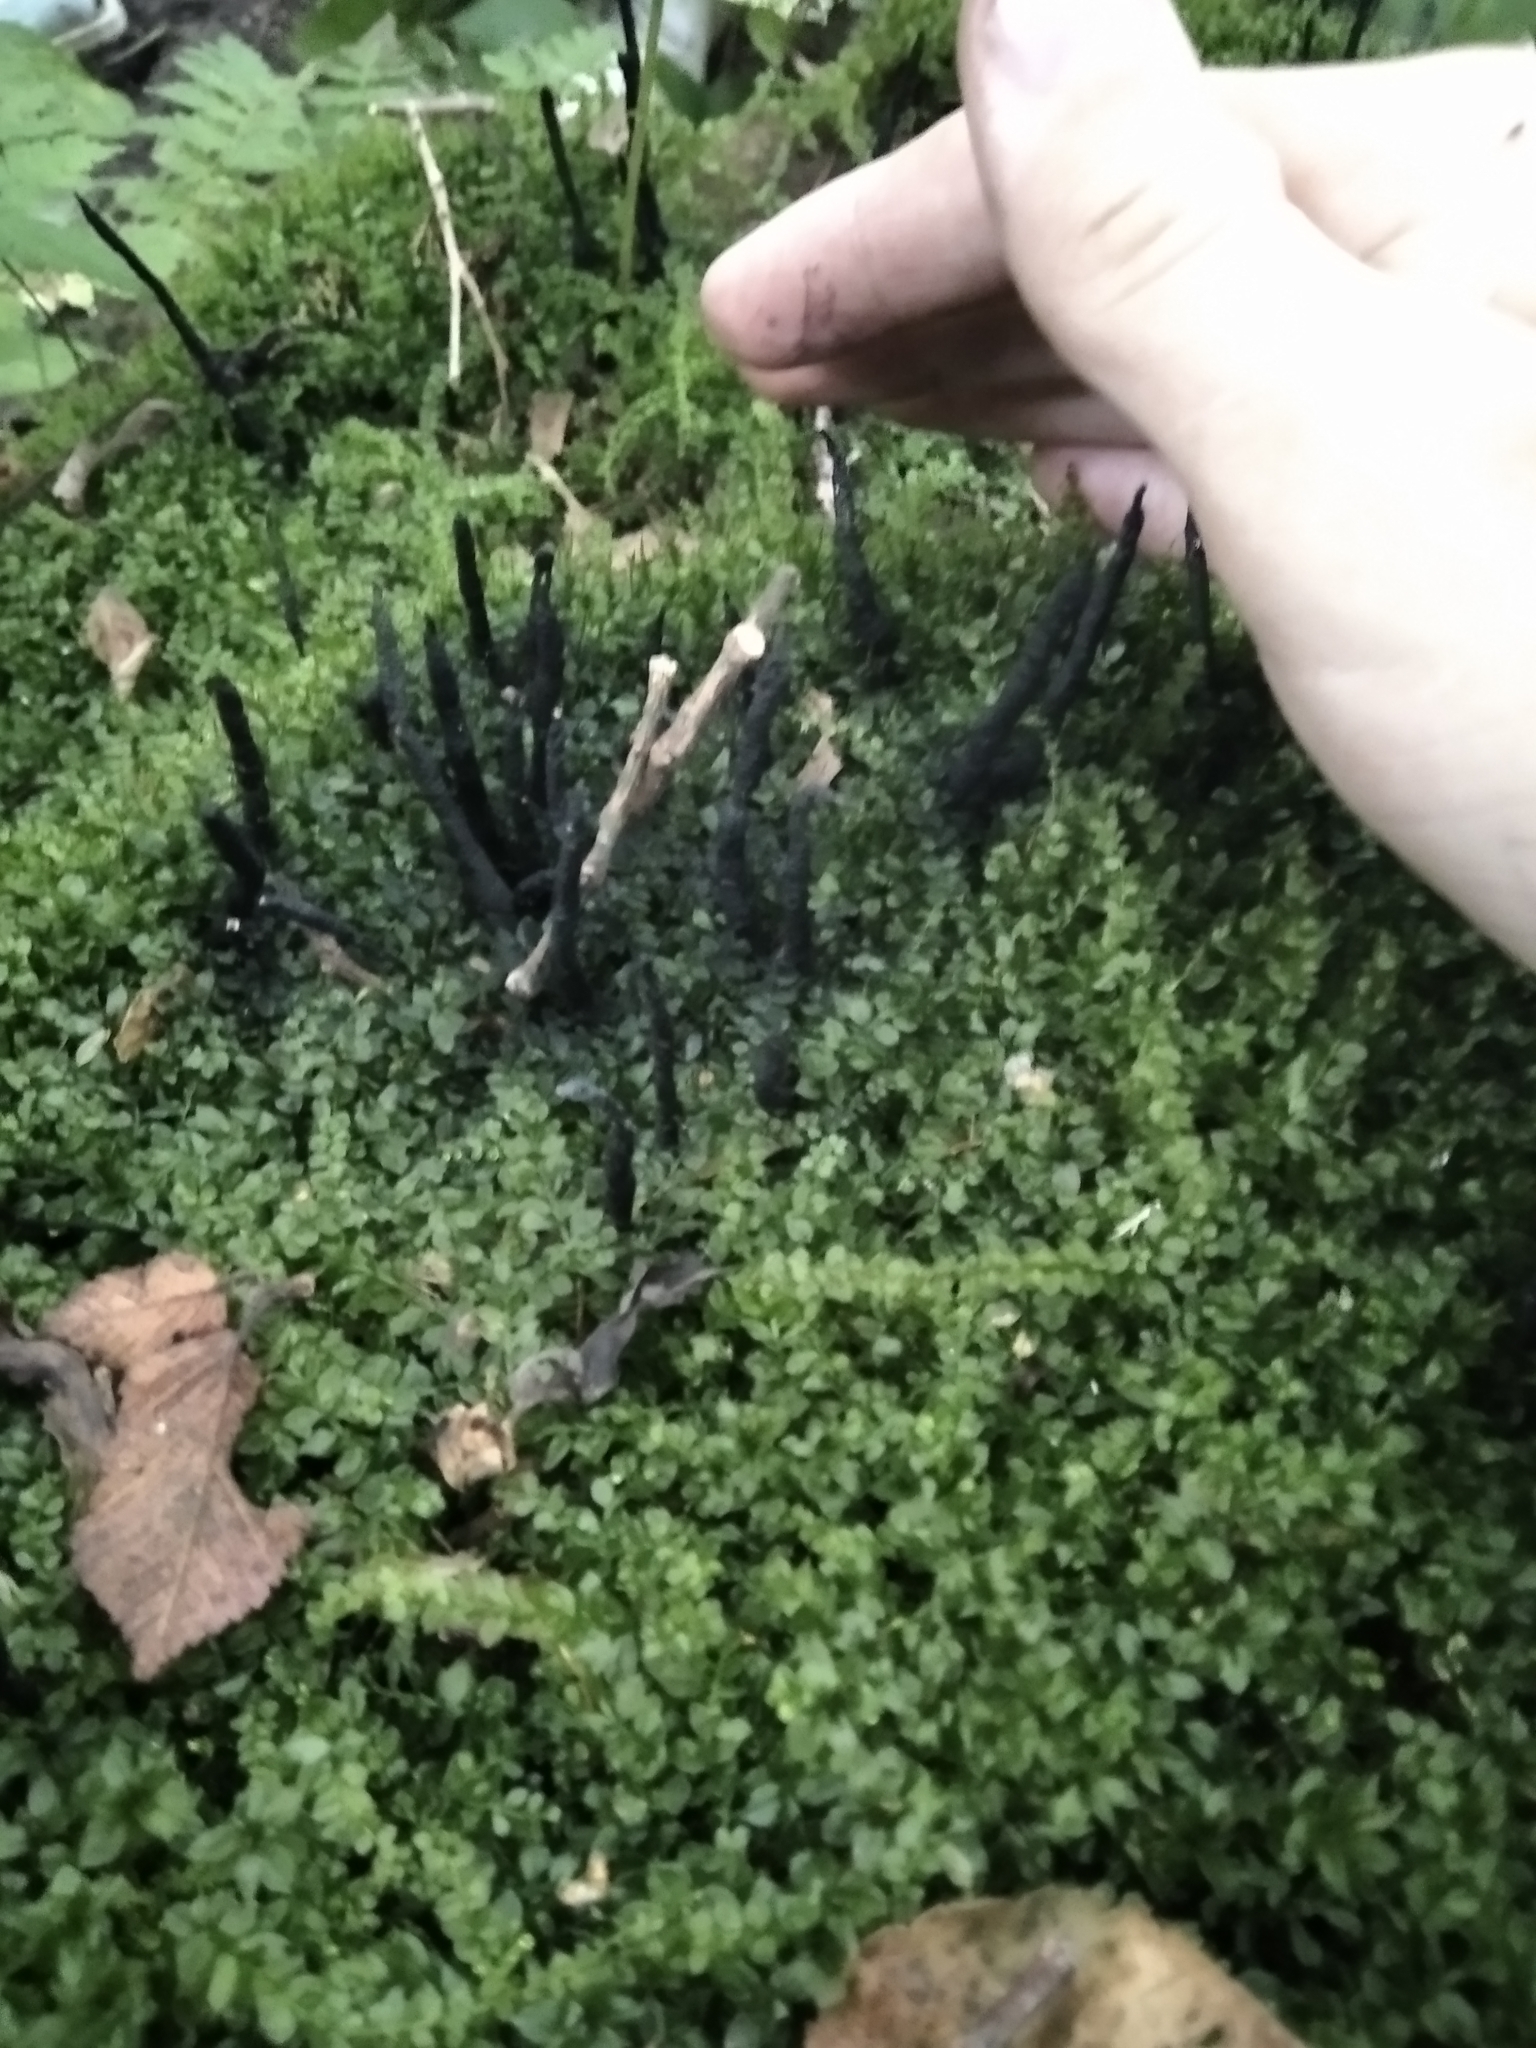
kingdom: Fungi
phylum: Ascomycota
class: Sordariomycetes
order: Xylariales
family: Xylariaceae
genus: Xylaria
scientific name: Xylaria hypoxylon
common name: Candle-snuff fungus
